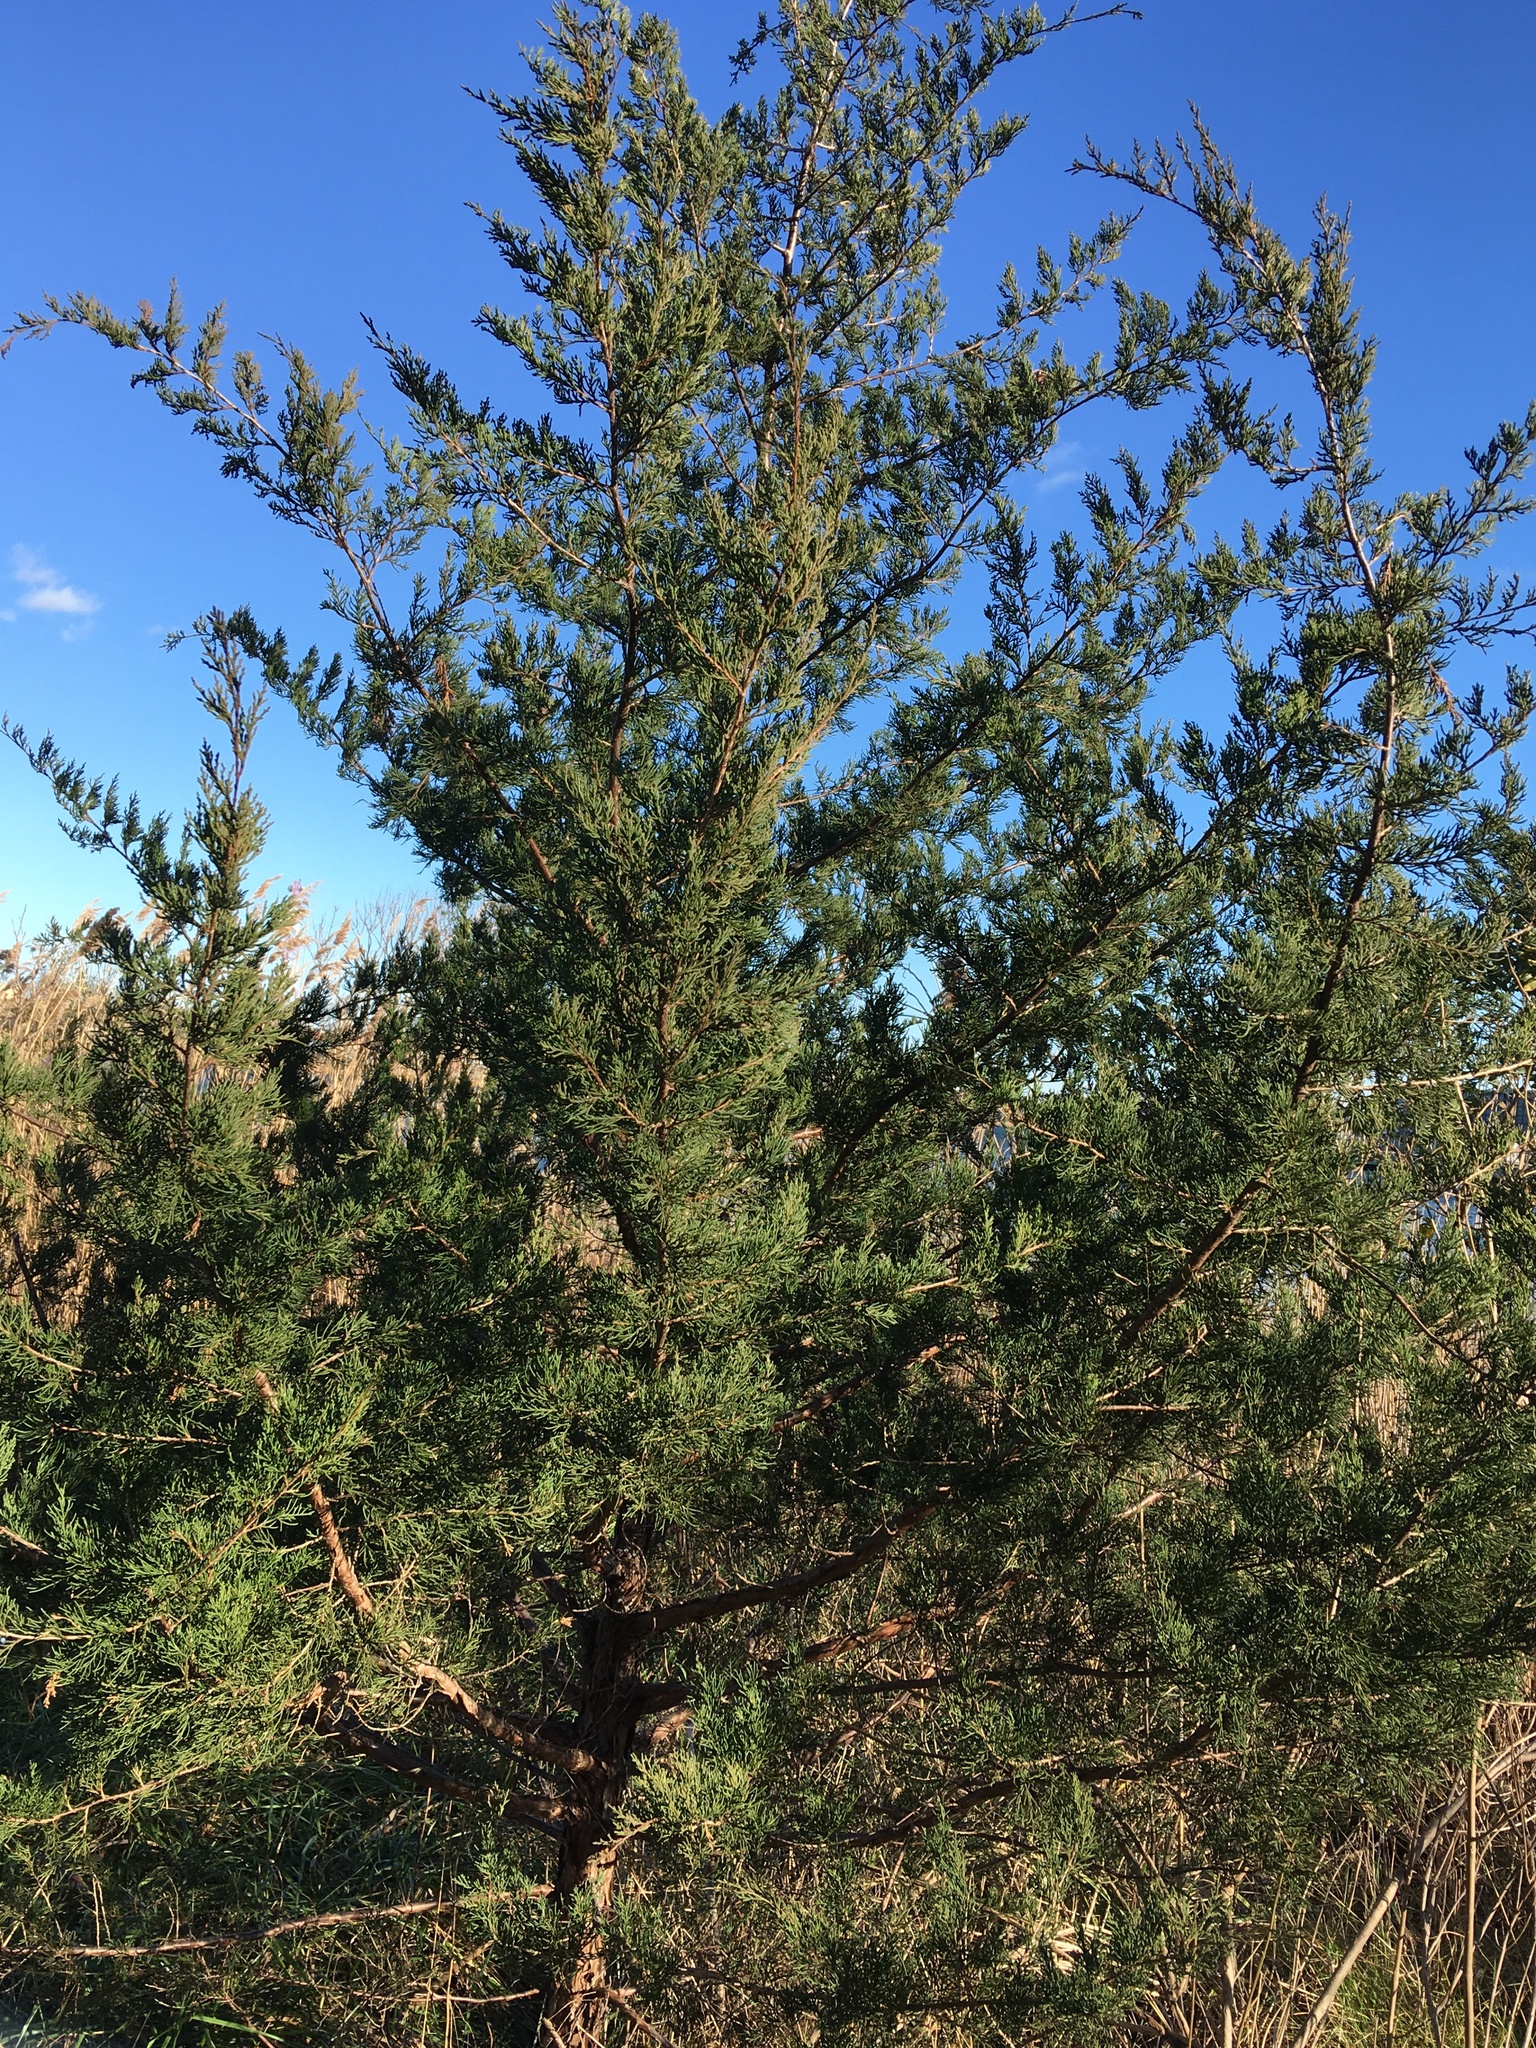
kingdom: Plantae
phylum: Tracheophyta
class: Pinopsida
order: Pinales
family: Cupressaceae
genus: Juniperus
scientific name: Juniperus virginiana
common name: Red juniper
